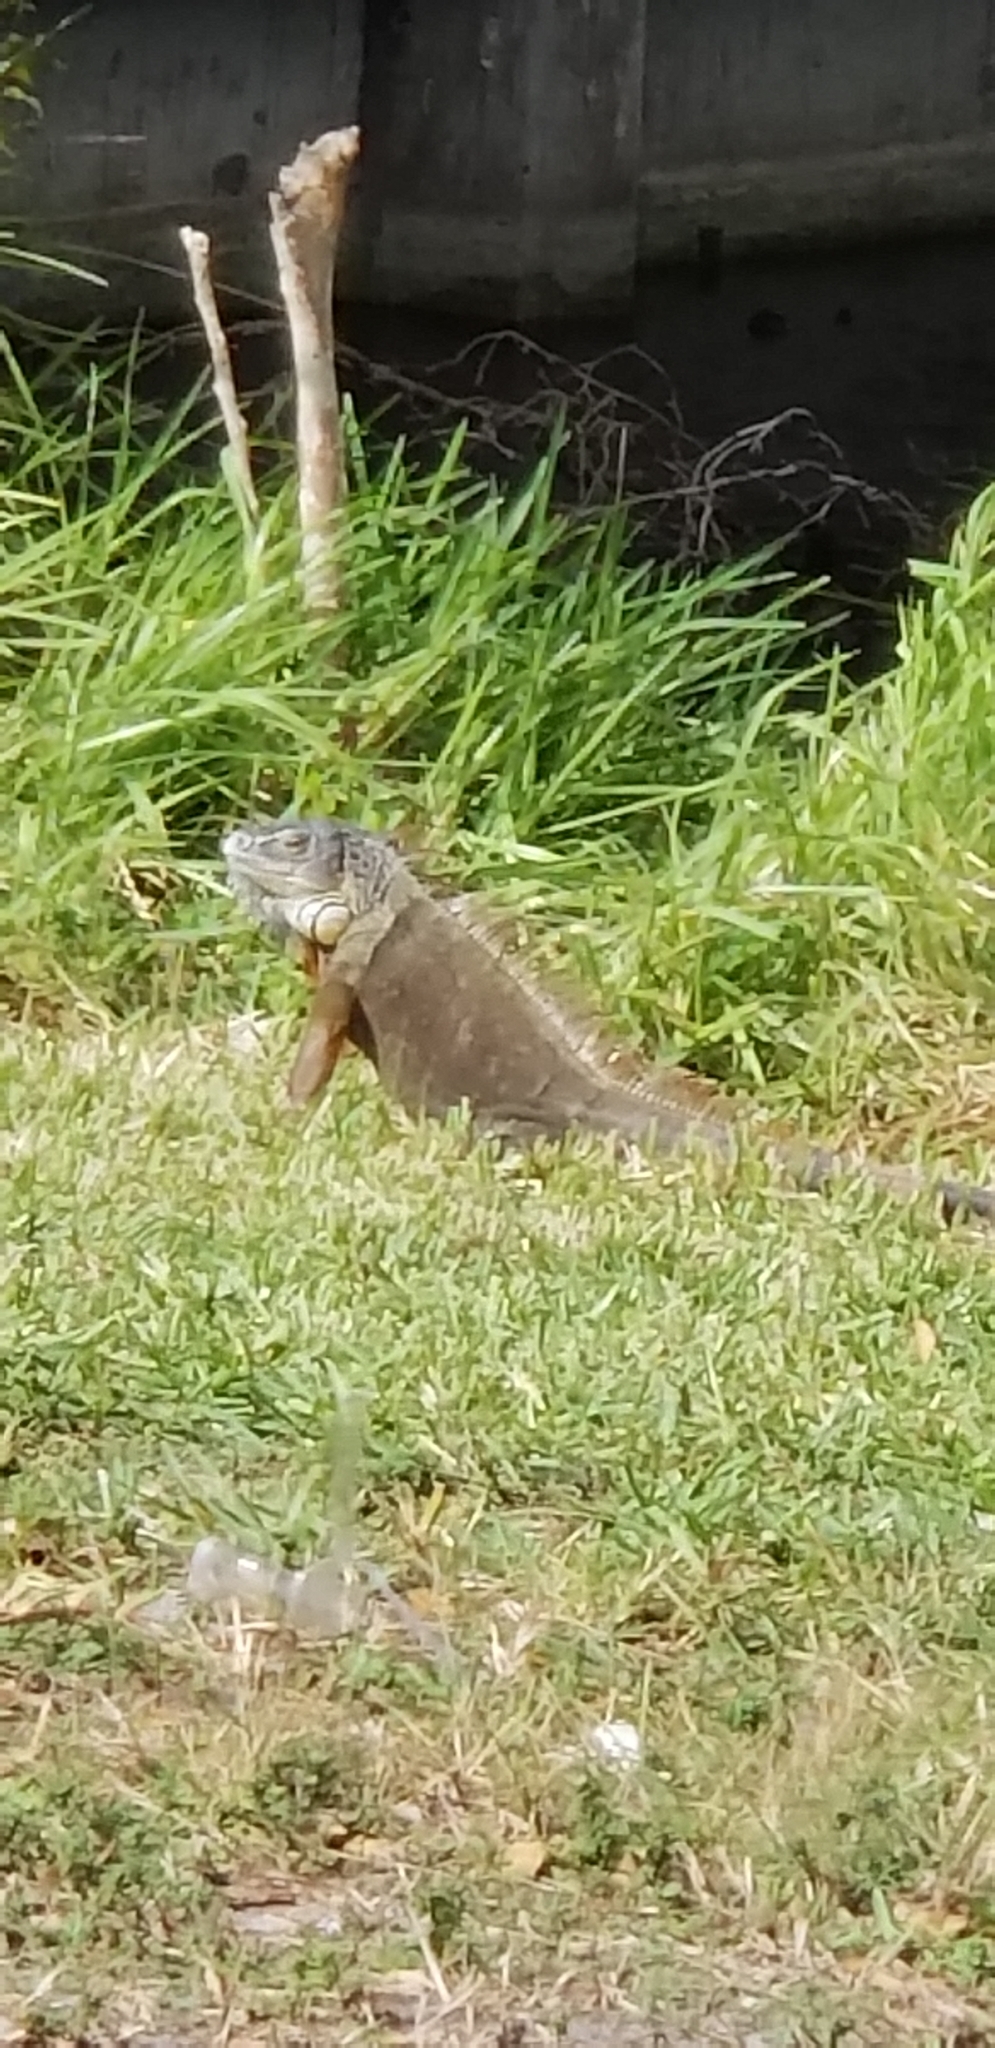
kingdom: Animalia
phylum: Chordata
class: Squamata
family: Iguanidae
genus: Iguana
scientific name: Iguana iguana
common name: Green iguana
